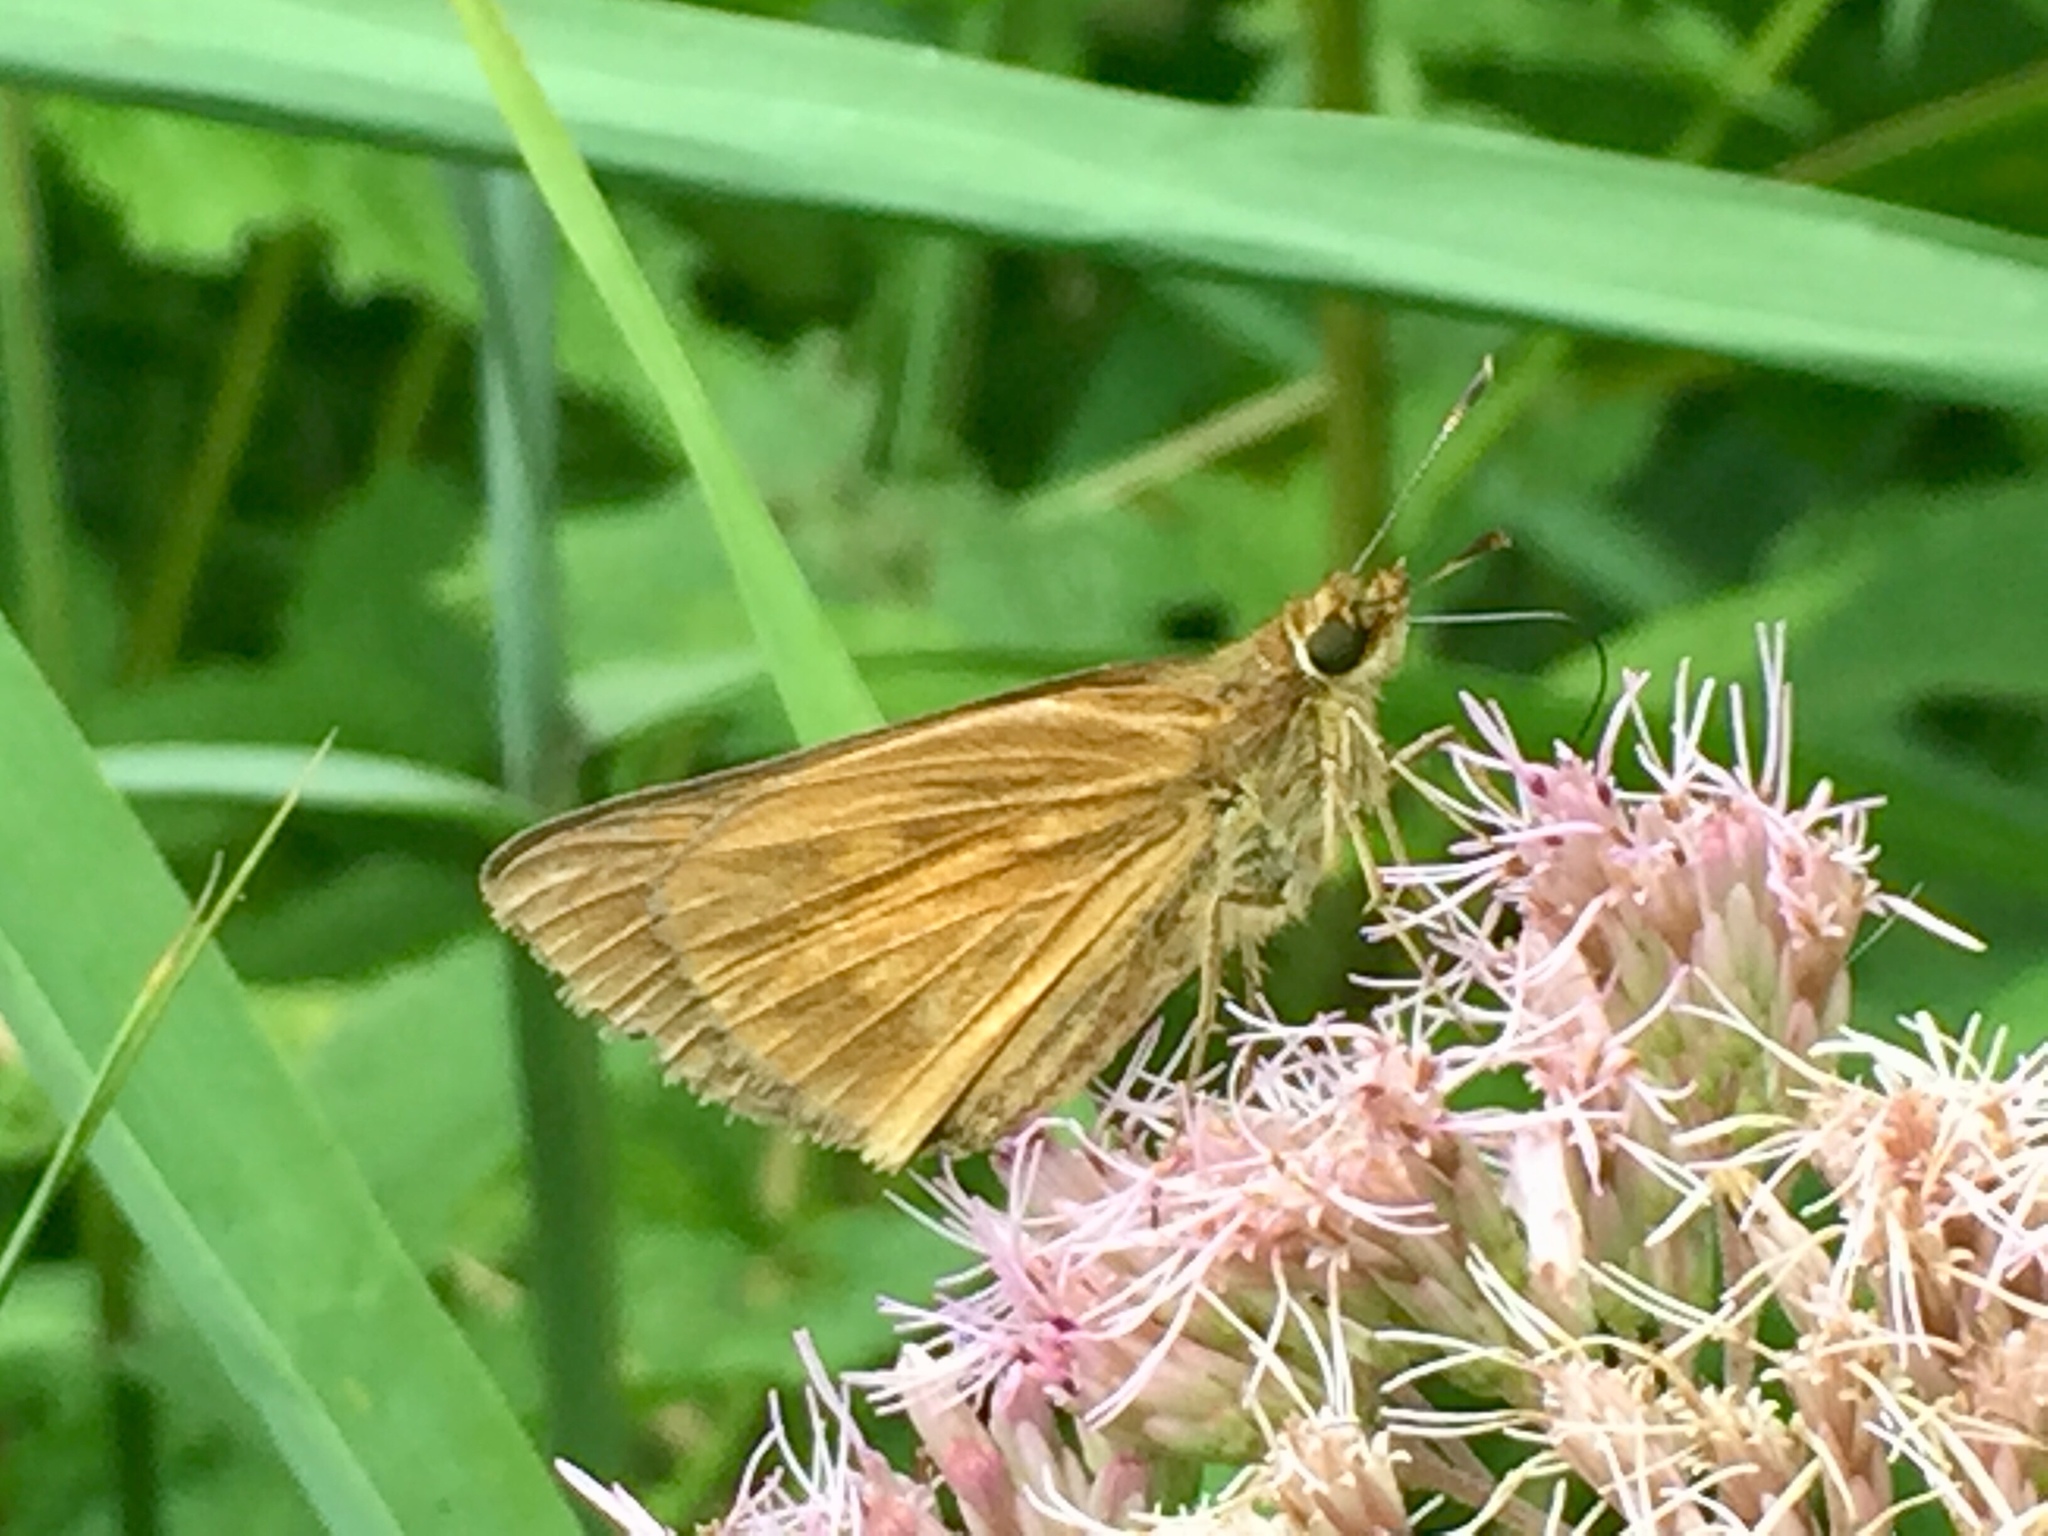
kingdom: Animalia
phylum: Arthropoda
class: Insecta
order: Lepidoptera
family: Hesperiidae
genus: Poanes
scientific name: Poanes viator
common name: Broad-winged skipper
